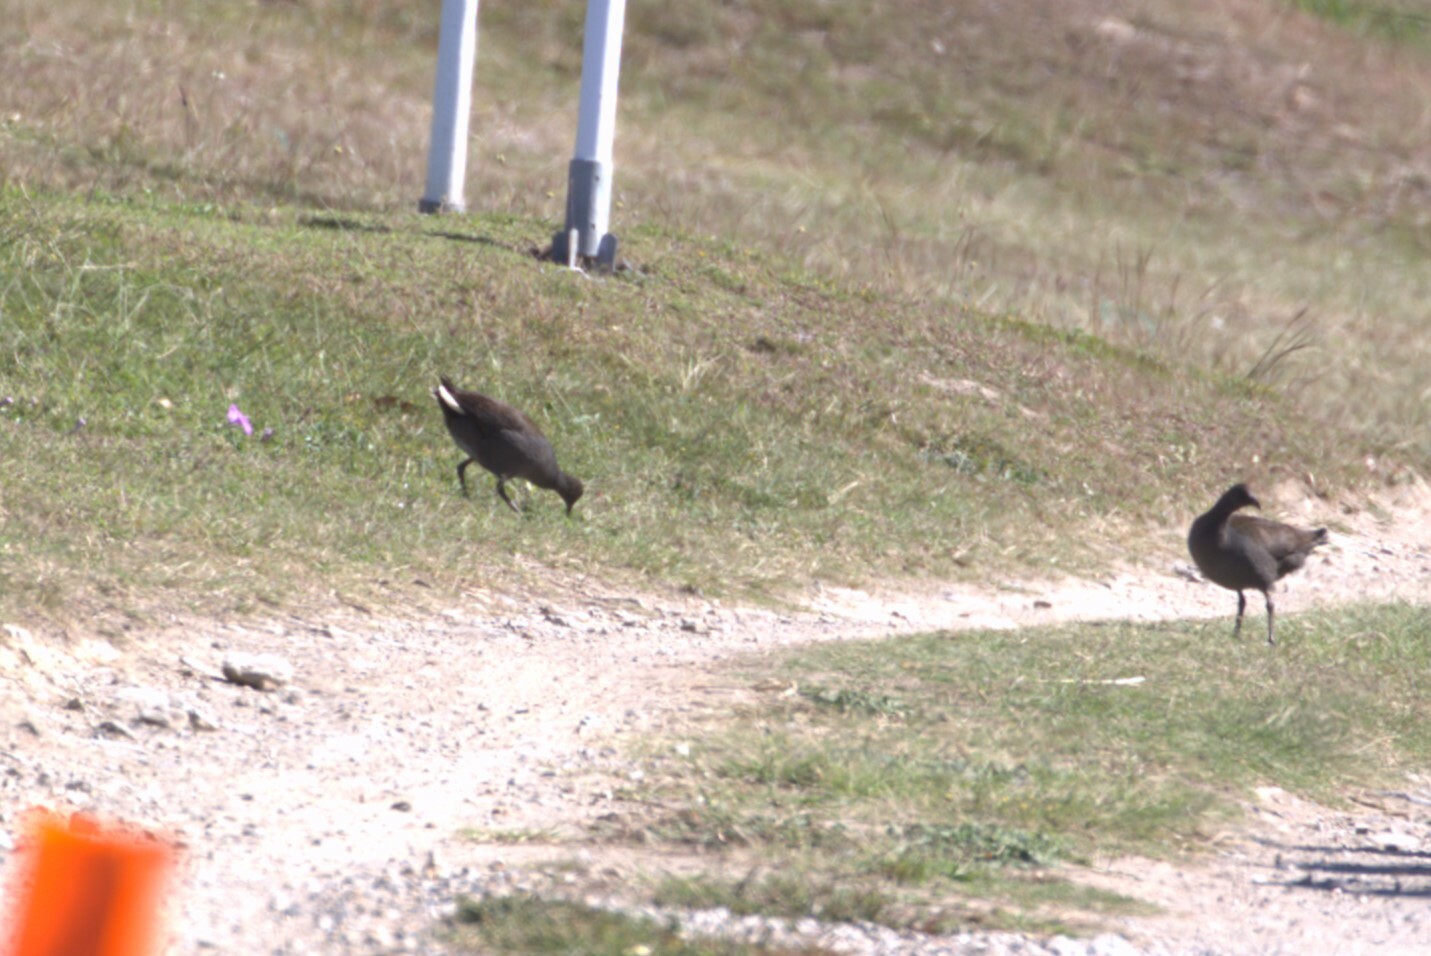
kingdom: Animalia
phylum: Chordata
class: Aves
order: Gruiformes
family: Rallidae
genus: Gallinula
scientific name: Gallinula tenebrosa
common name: Dusky moorhen
